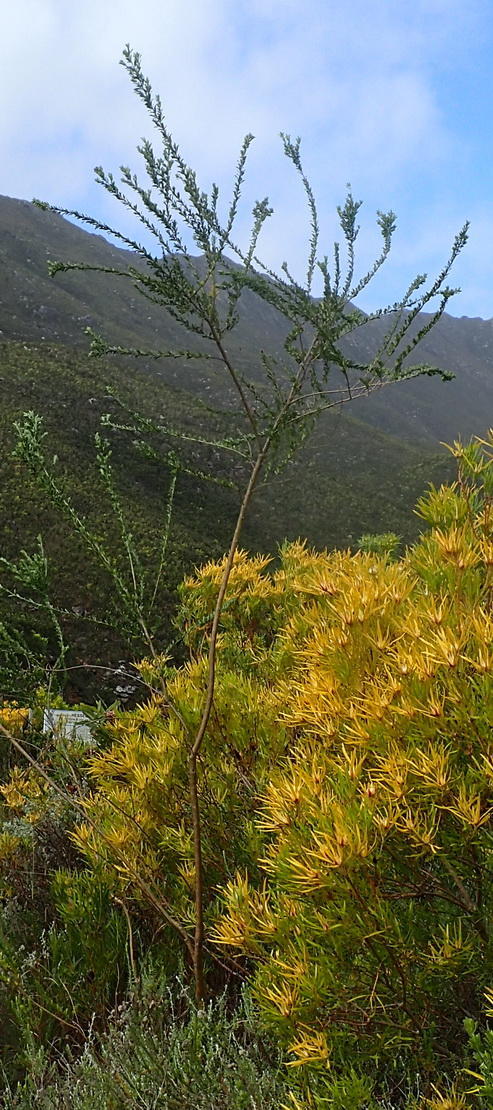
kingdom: Plantae
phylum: Tracheophyta
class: Magnoliopsida
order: Fabales
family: Fabaceae
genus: Psoralea
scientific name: Psoralea spicata
